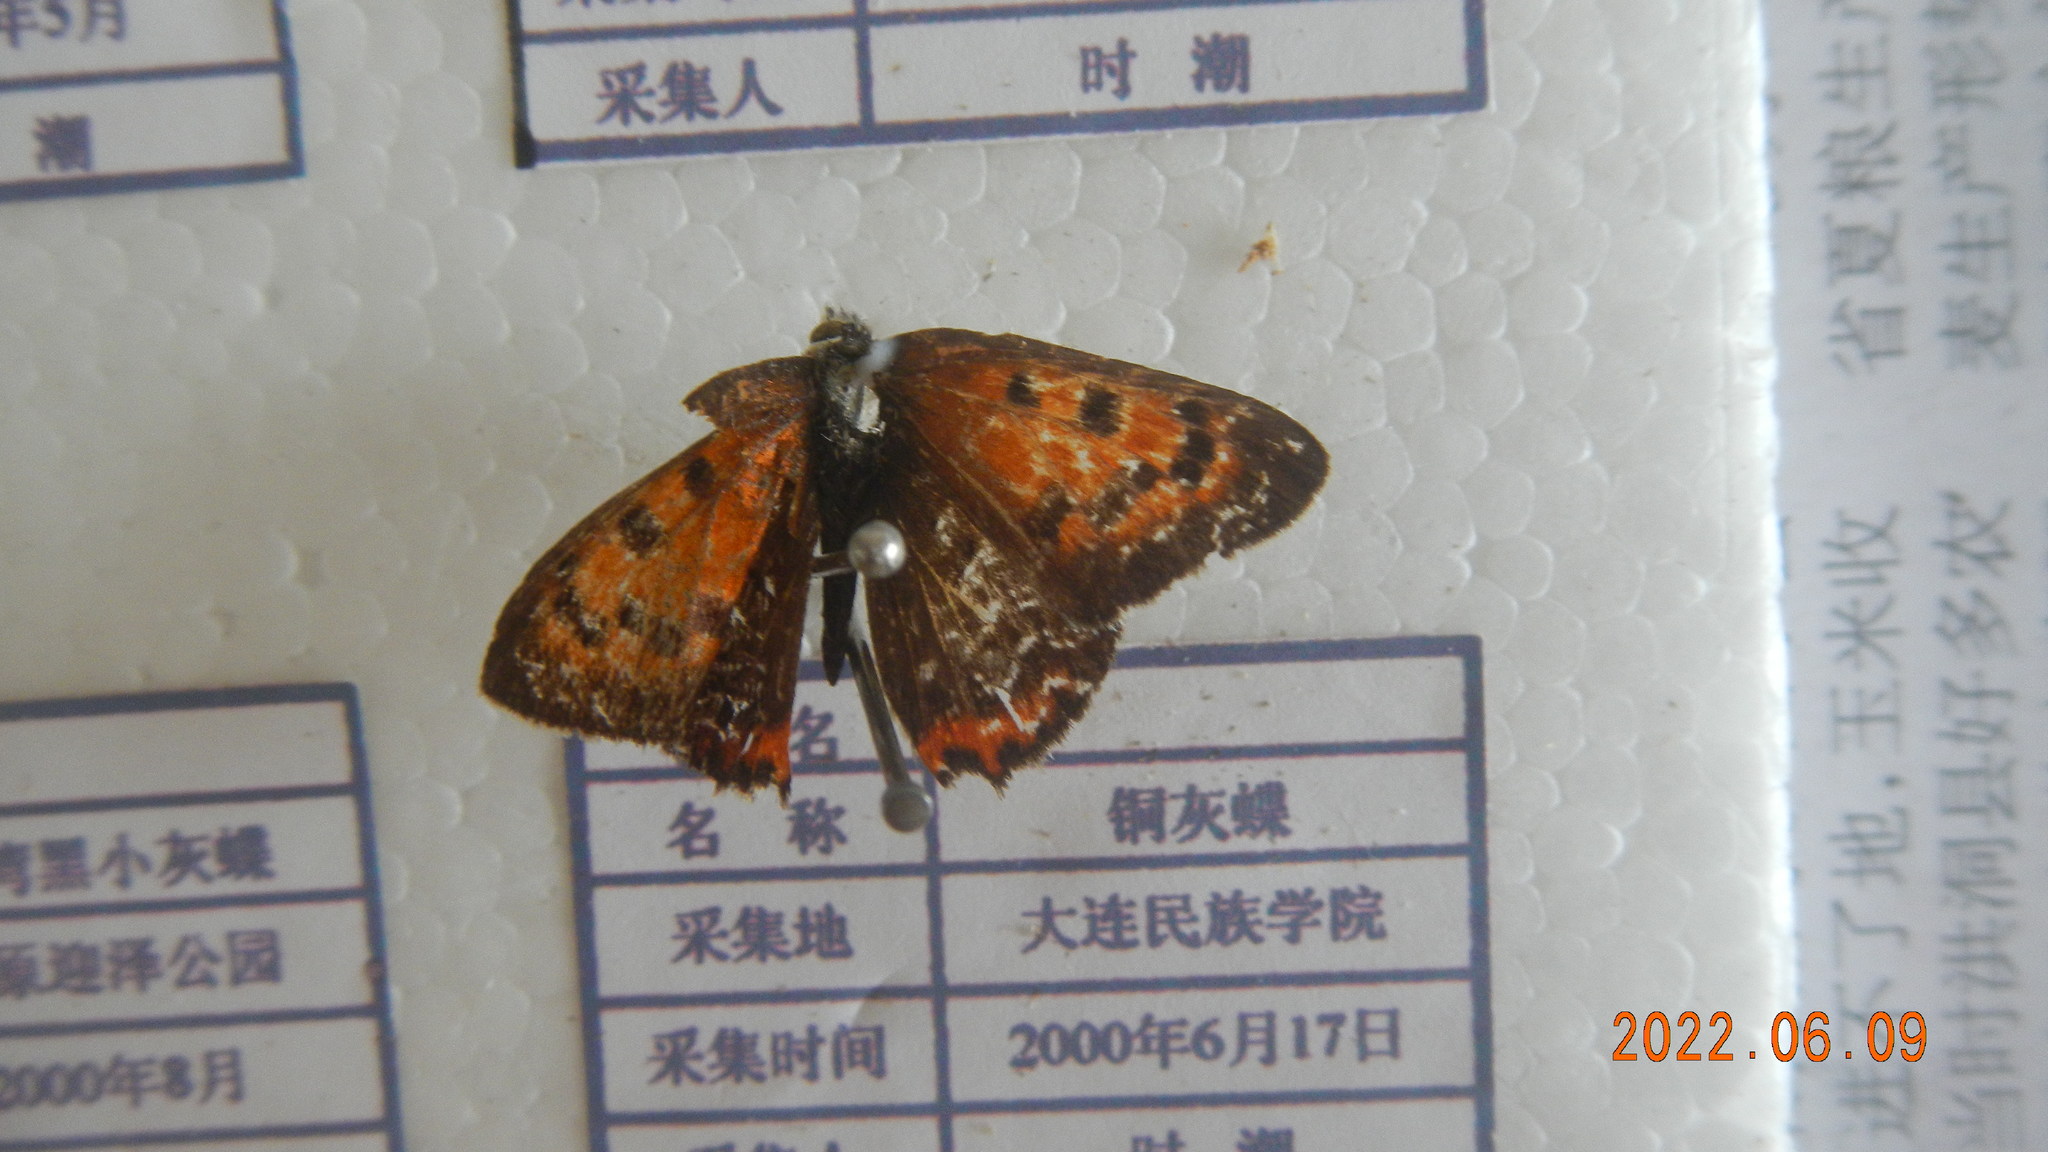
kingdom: Animalia
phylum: Arthropoda
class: Insecta
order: Lepidoptera
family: Lycaenidae
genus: Lycaena
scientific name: Lycaena phlaeas
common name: Small copper
